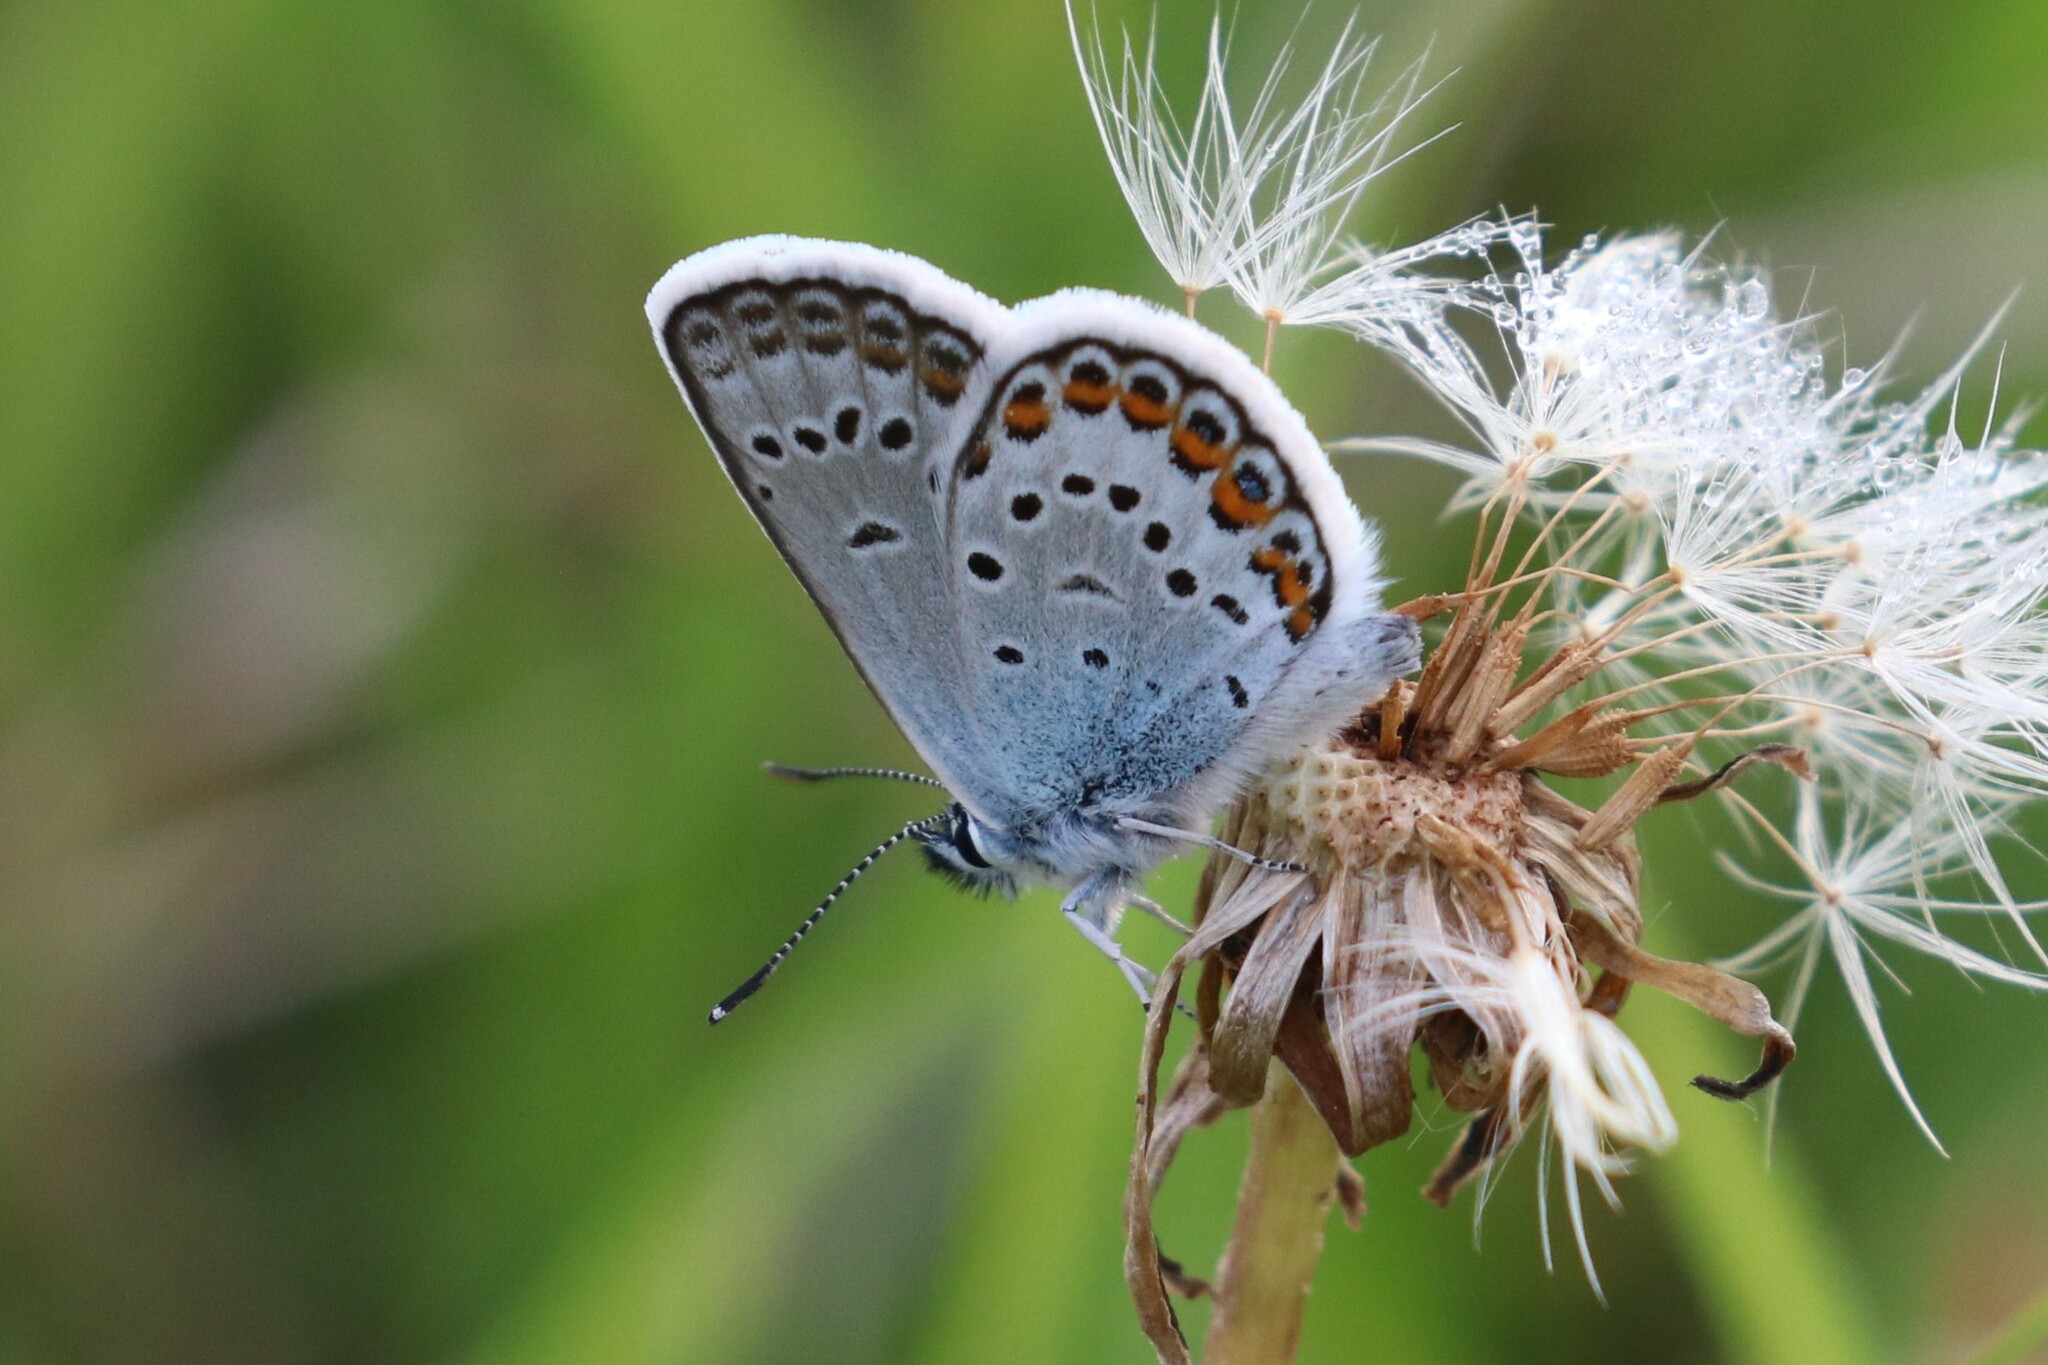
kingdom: Animalia
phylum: Arthropoda
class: Insecta
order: Lepidoptera
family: Lycaenidae
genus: Plebejus
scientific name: Plebejus argus
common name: Silver-studded blue
